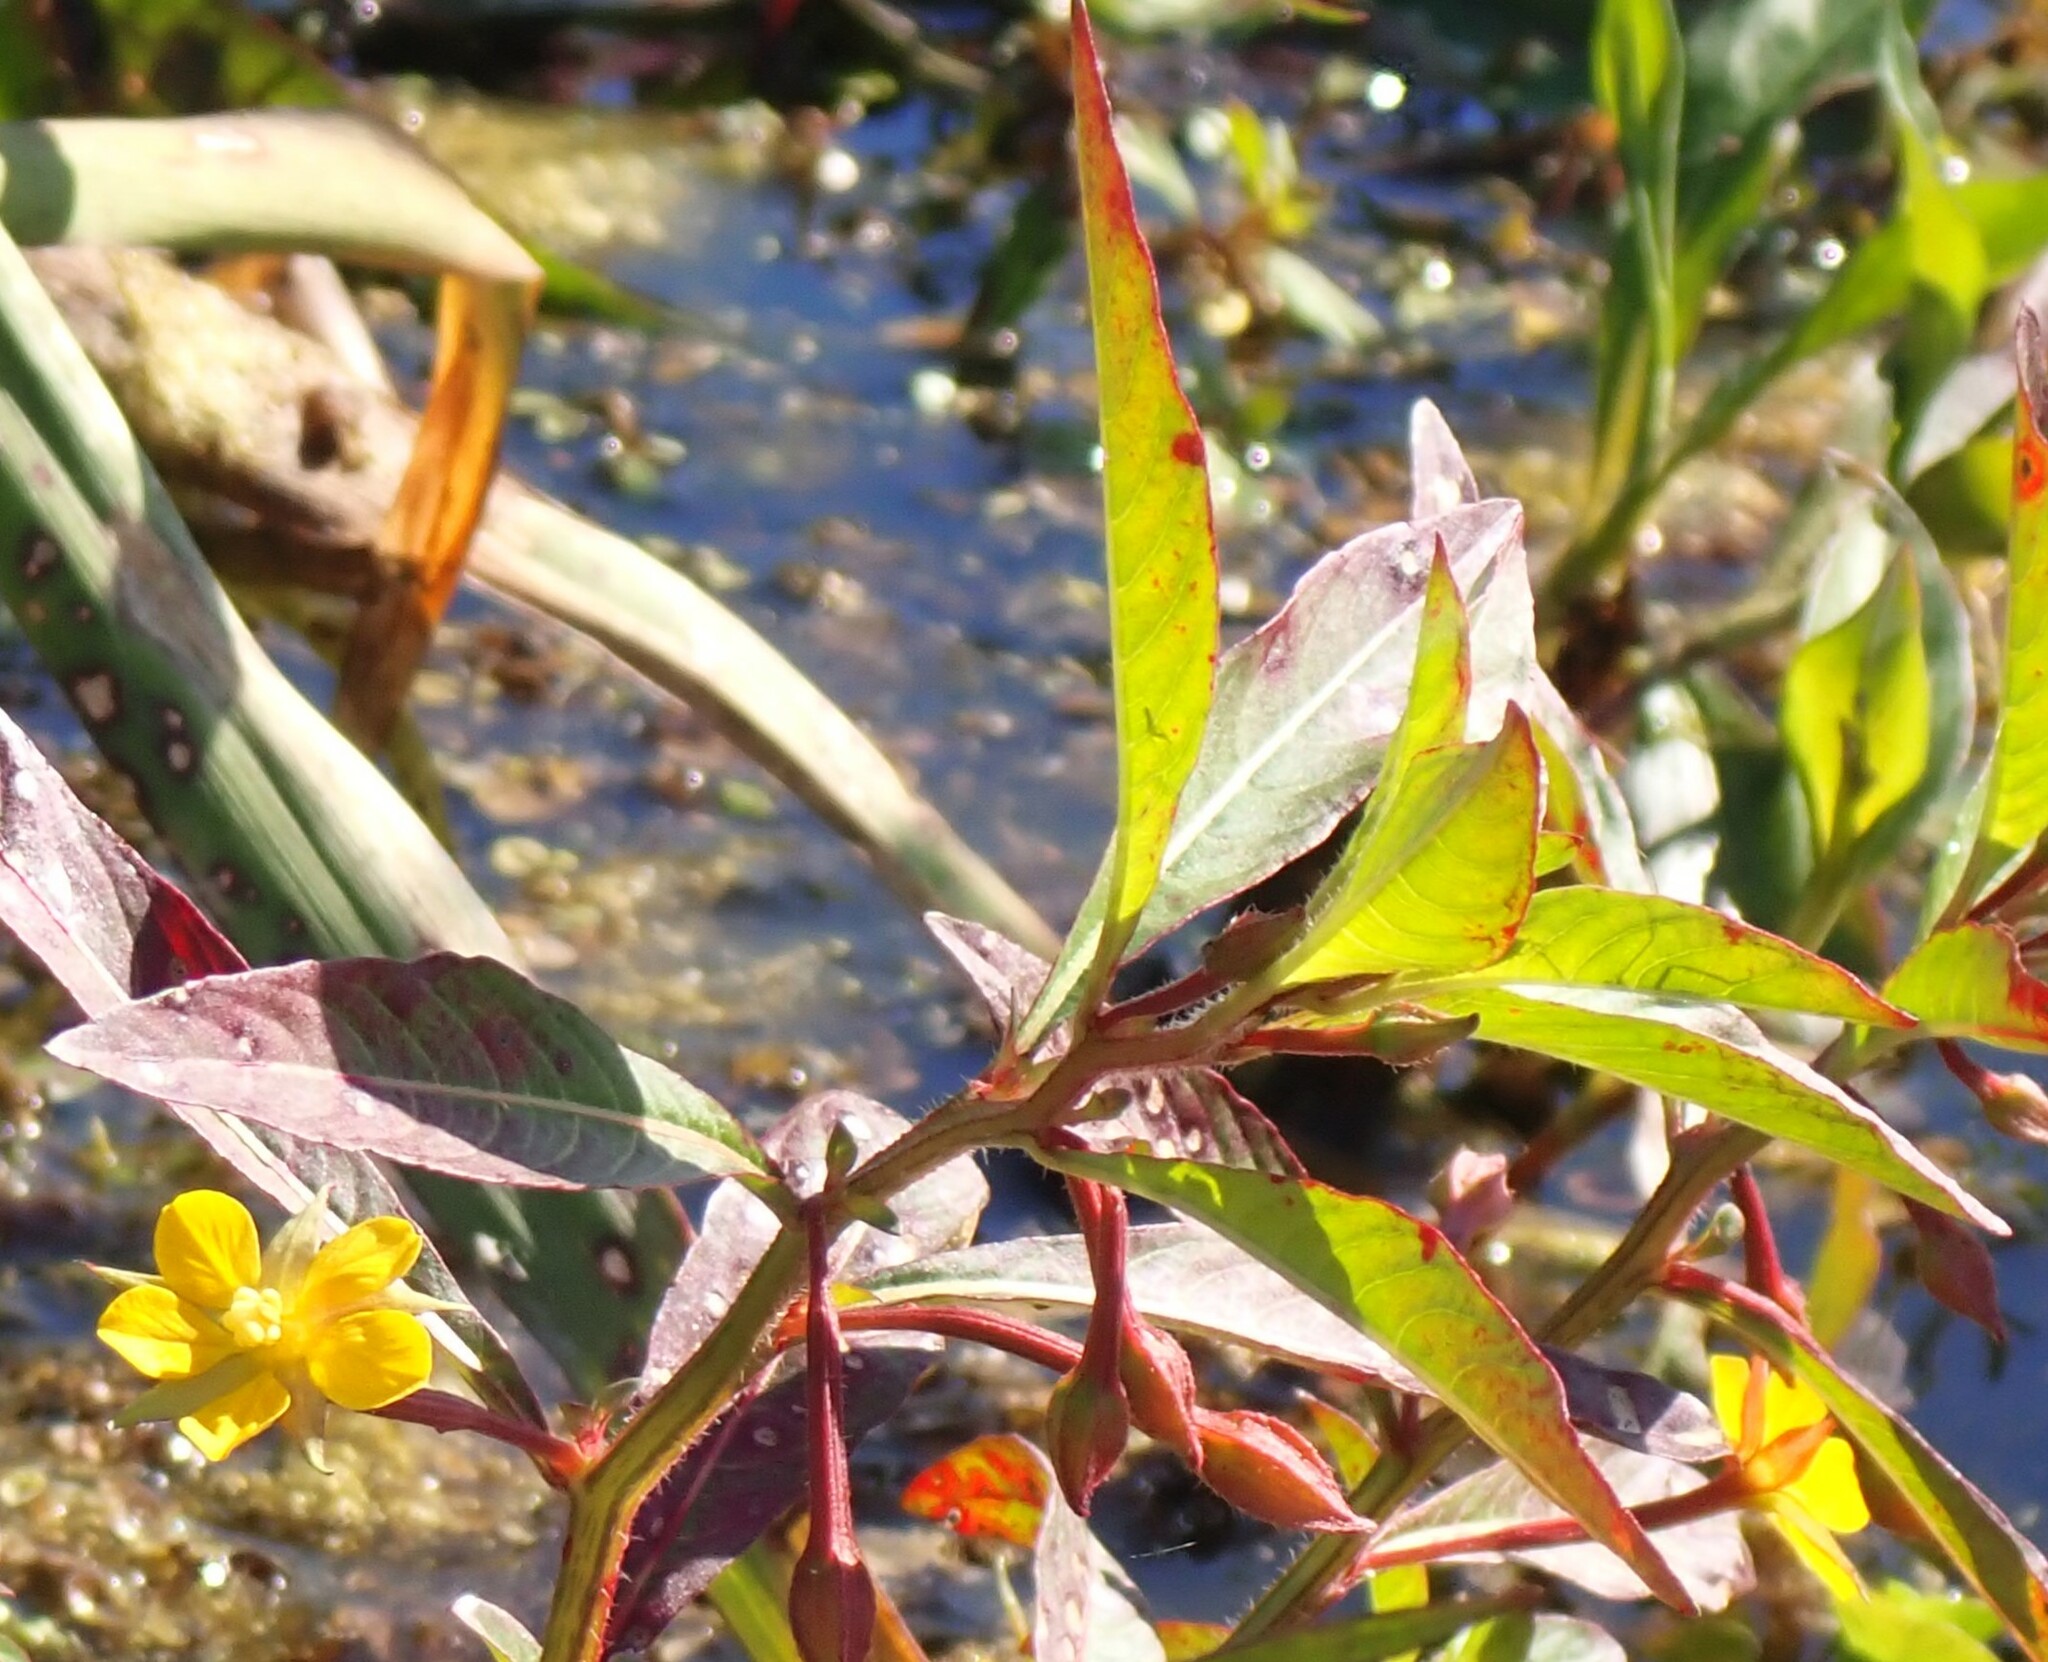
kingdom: Plantae
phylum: Tracheophyta
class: Magnoliopsida
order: Myrtales
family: Onagraceae
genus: Ludwigia
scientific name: Ludwigia leptocarpa
